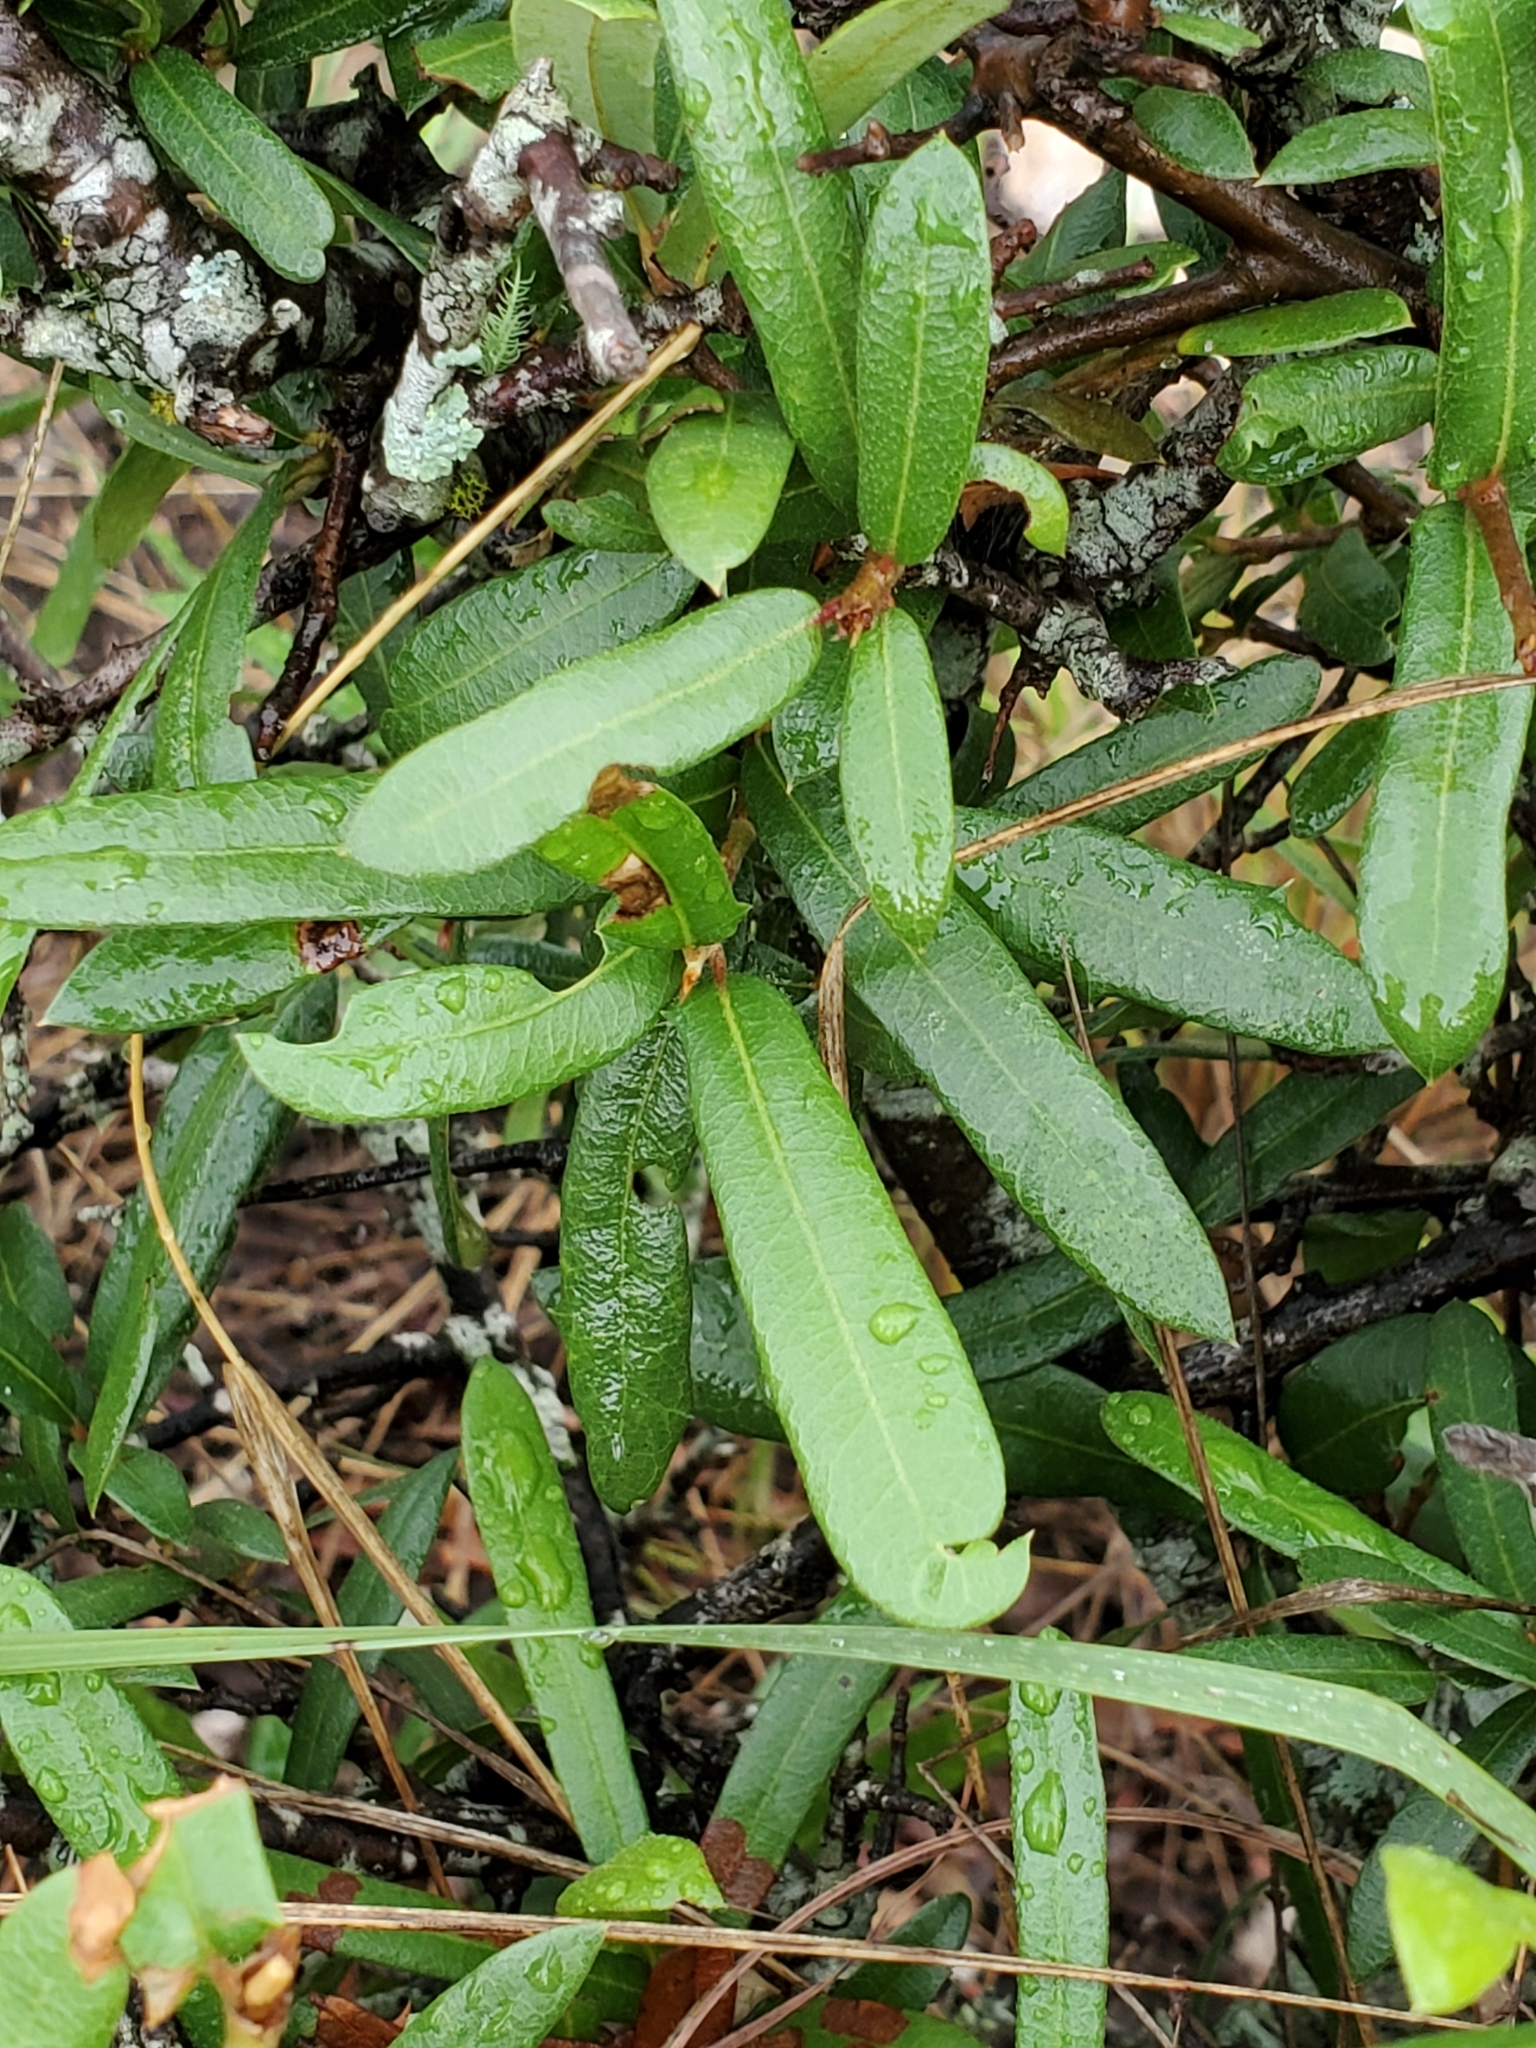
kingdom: Plantae
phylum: Tracheophyta
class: Magnoliopsida
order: Fagales
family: Fagaceae
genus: Quercus
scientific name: Quercus fusiformis
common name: Texas live oak
